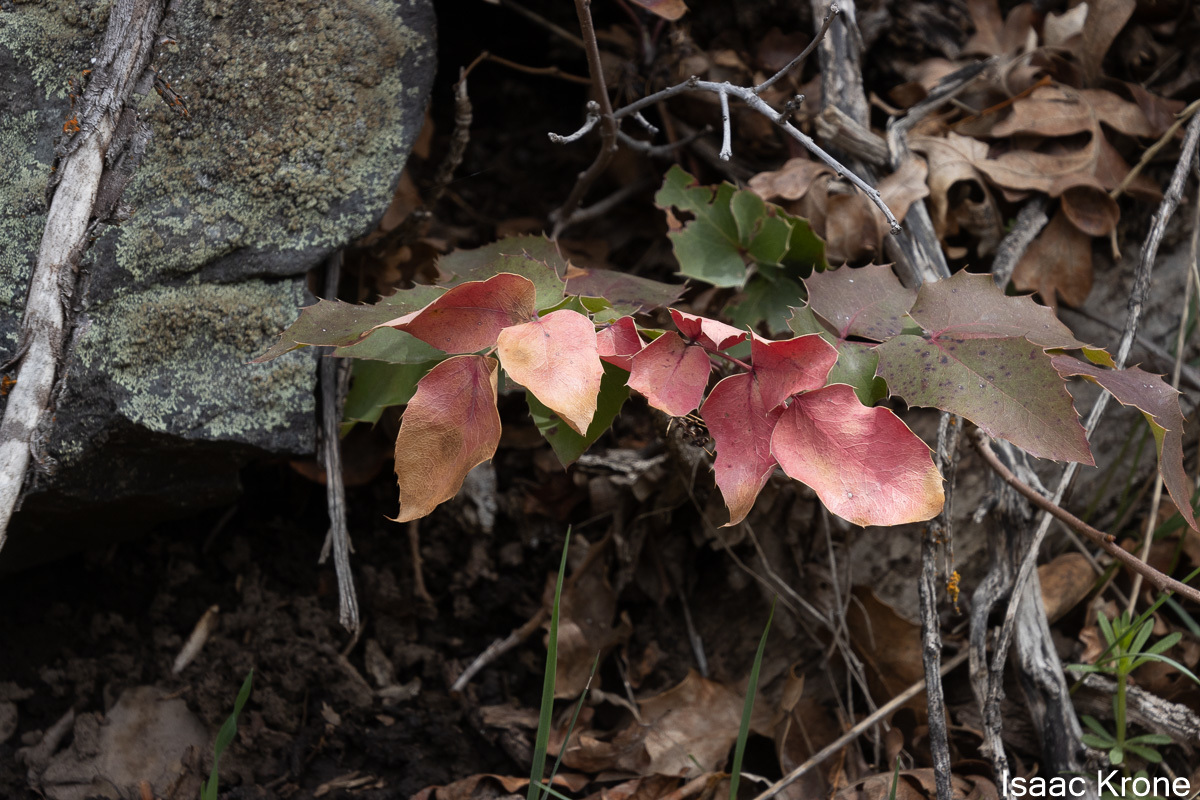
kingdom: Plantae
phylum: Tracheophyta
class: Magnoliopsida
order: Ranunculales
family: Berberidaceae
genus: Mahonia
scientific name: Mahonia repens
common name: Creeping oregon-grape
